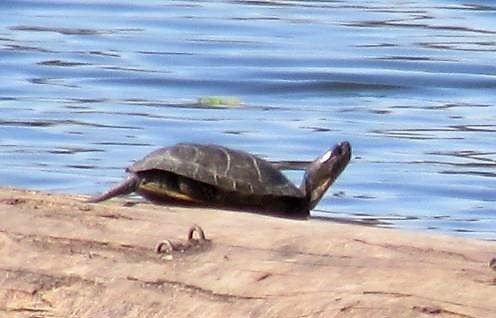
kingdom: Animalia
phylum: Chordata
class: Testudines
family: Emydidae
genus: Actinemys
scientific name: Actinemys marmorata
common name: Western pond turtle
